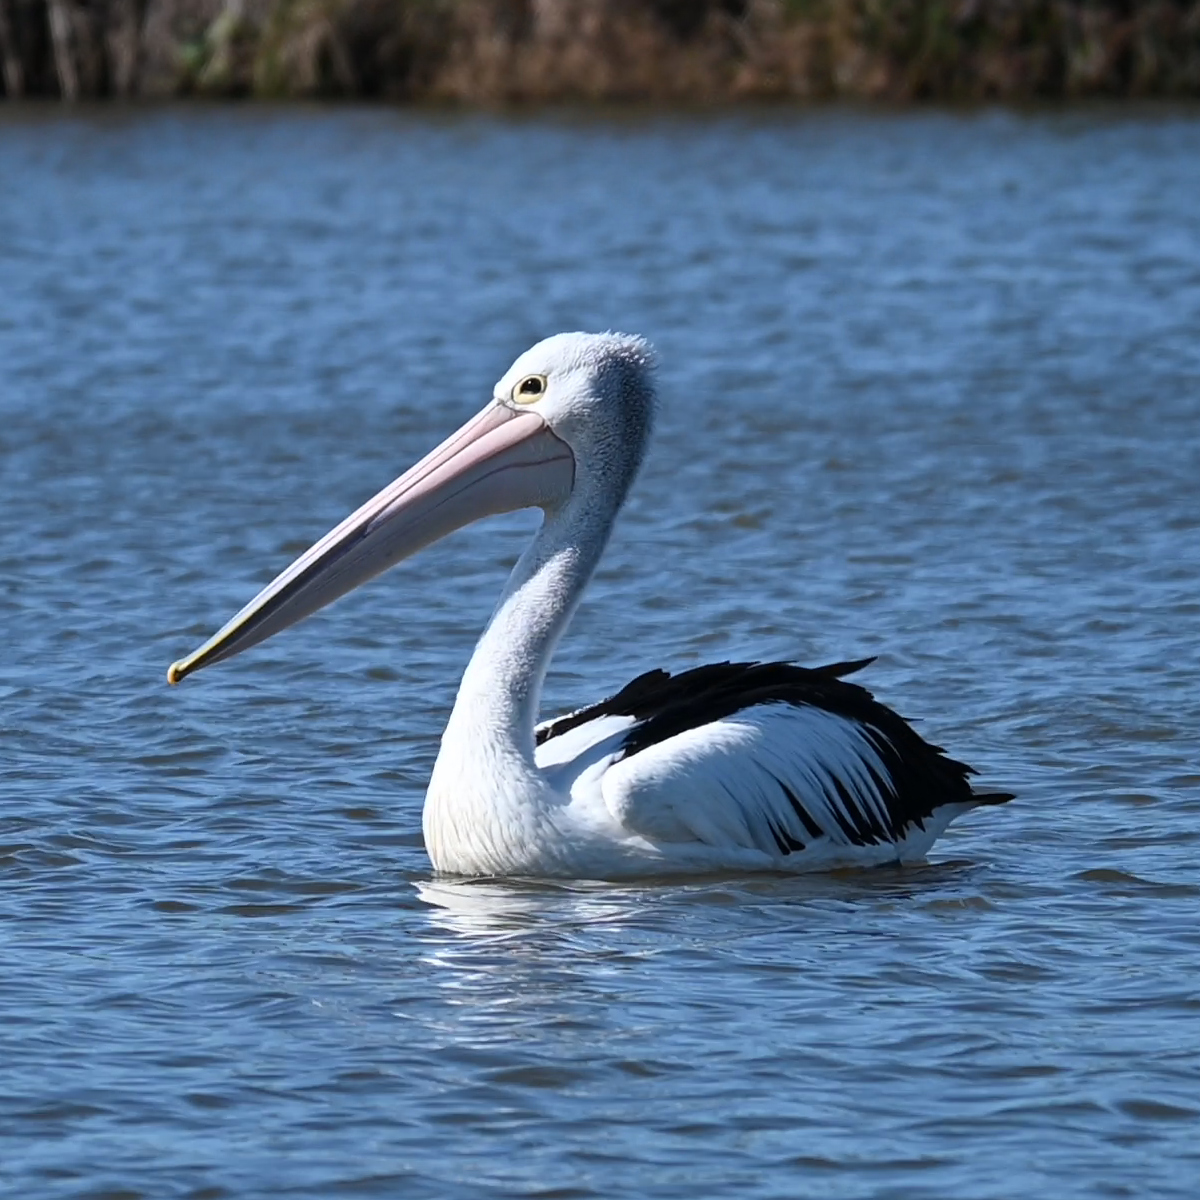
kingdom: Animalia
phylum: Chordata
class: Aves
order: Pelecaniformes
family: Pelecanidae
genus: Pelecanus
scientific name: Pelecanus conspicillatus
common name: Australian pelican
